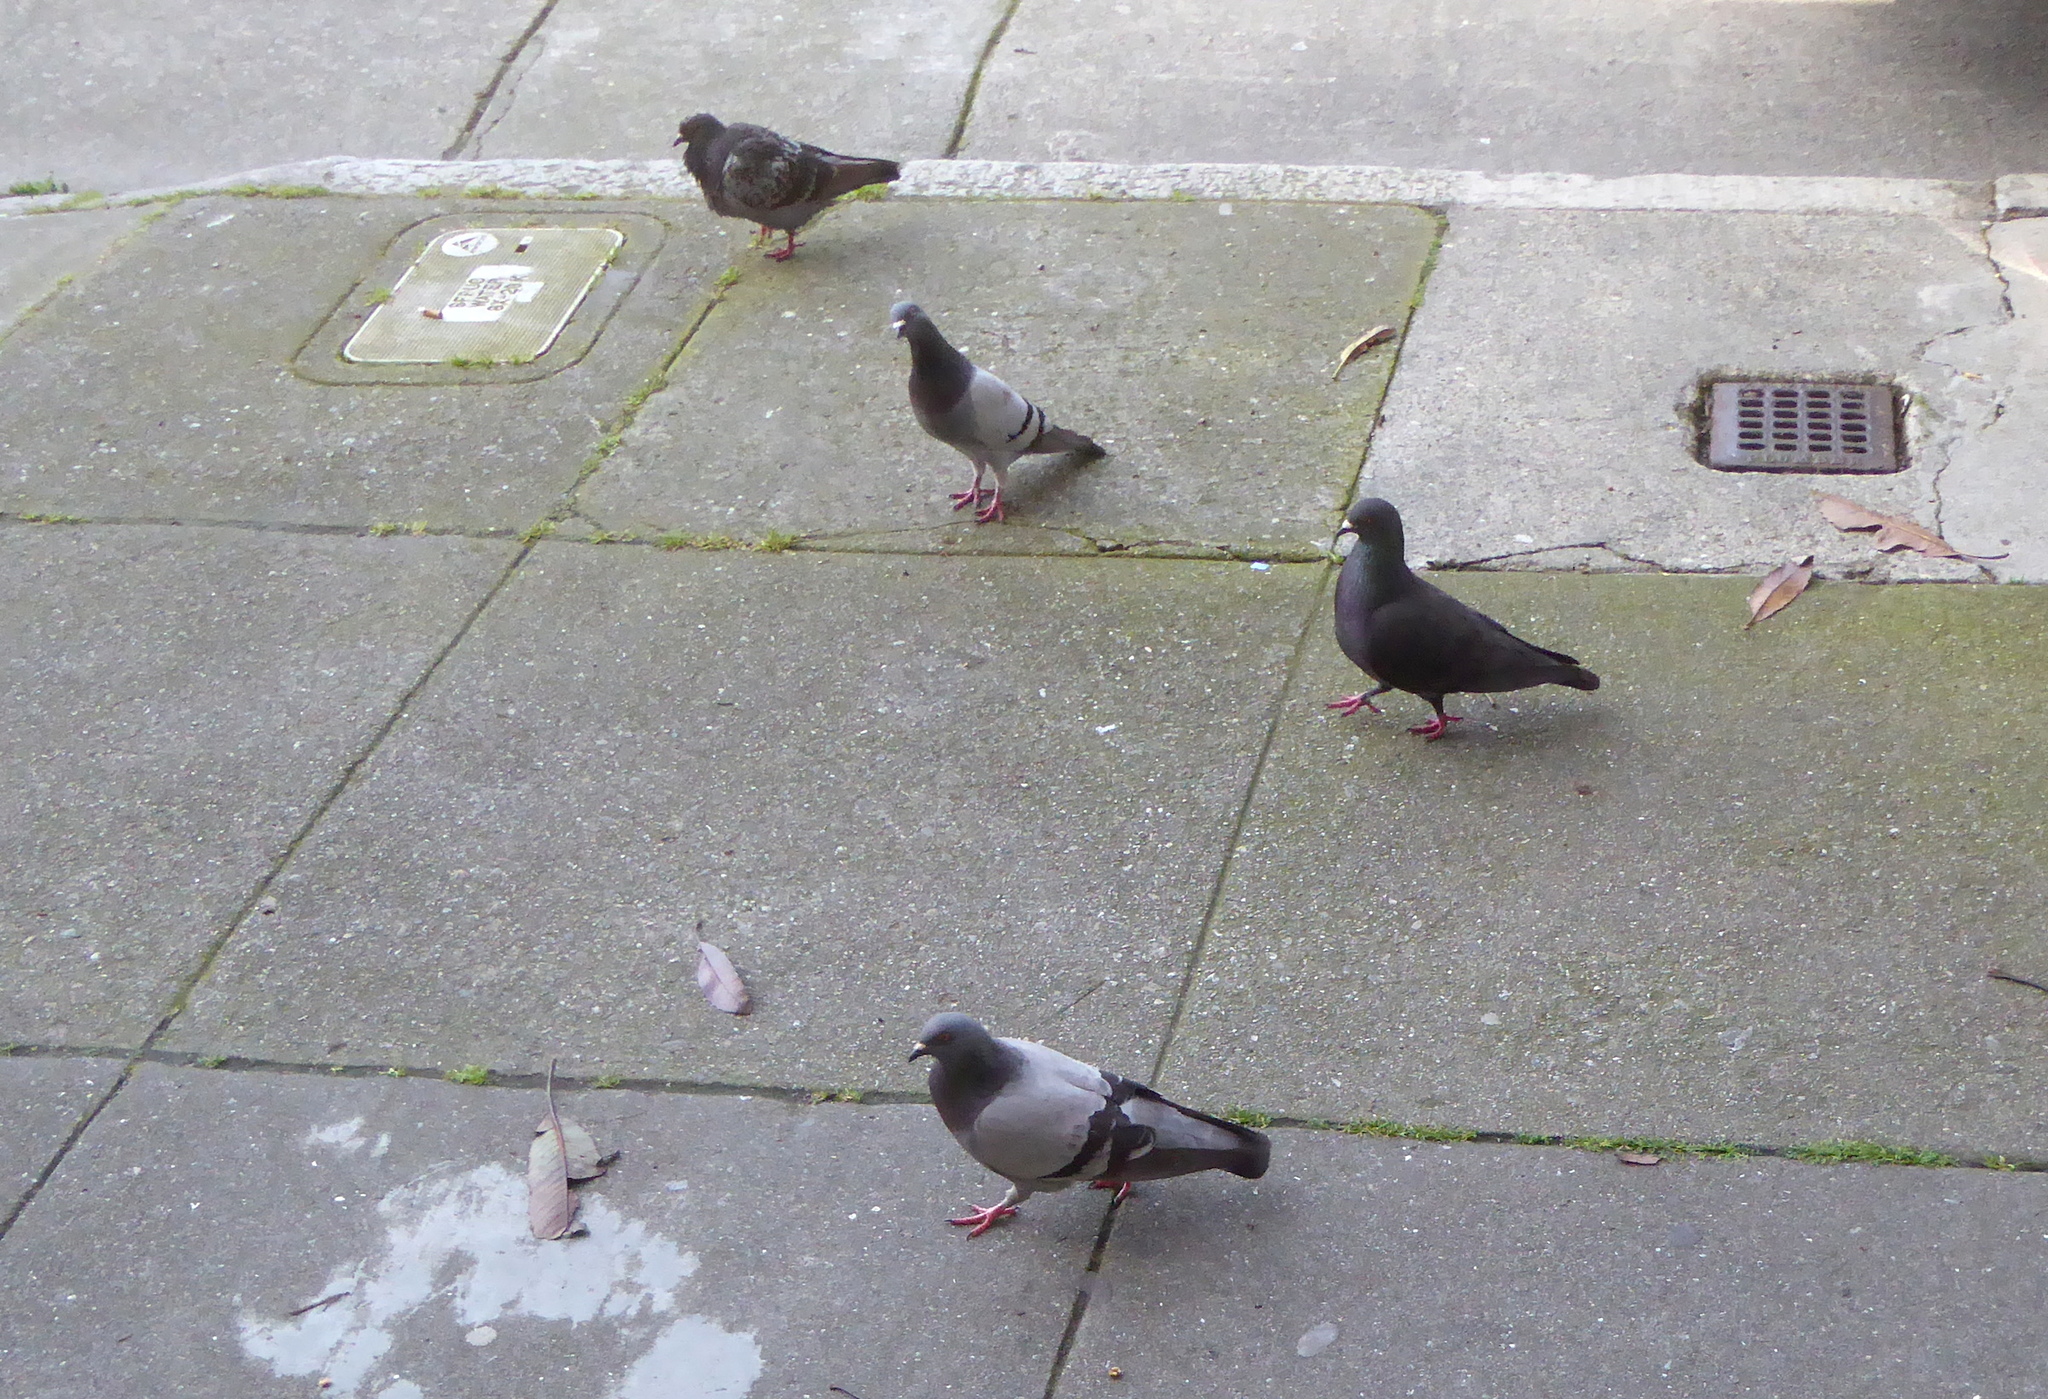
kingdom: Animalia
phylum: Chordata
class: Aves
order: Columbiformes
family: Columbidae
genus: Columba
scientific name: Columba livia
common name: Rock pigeon
